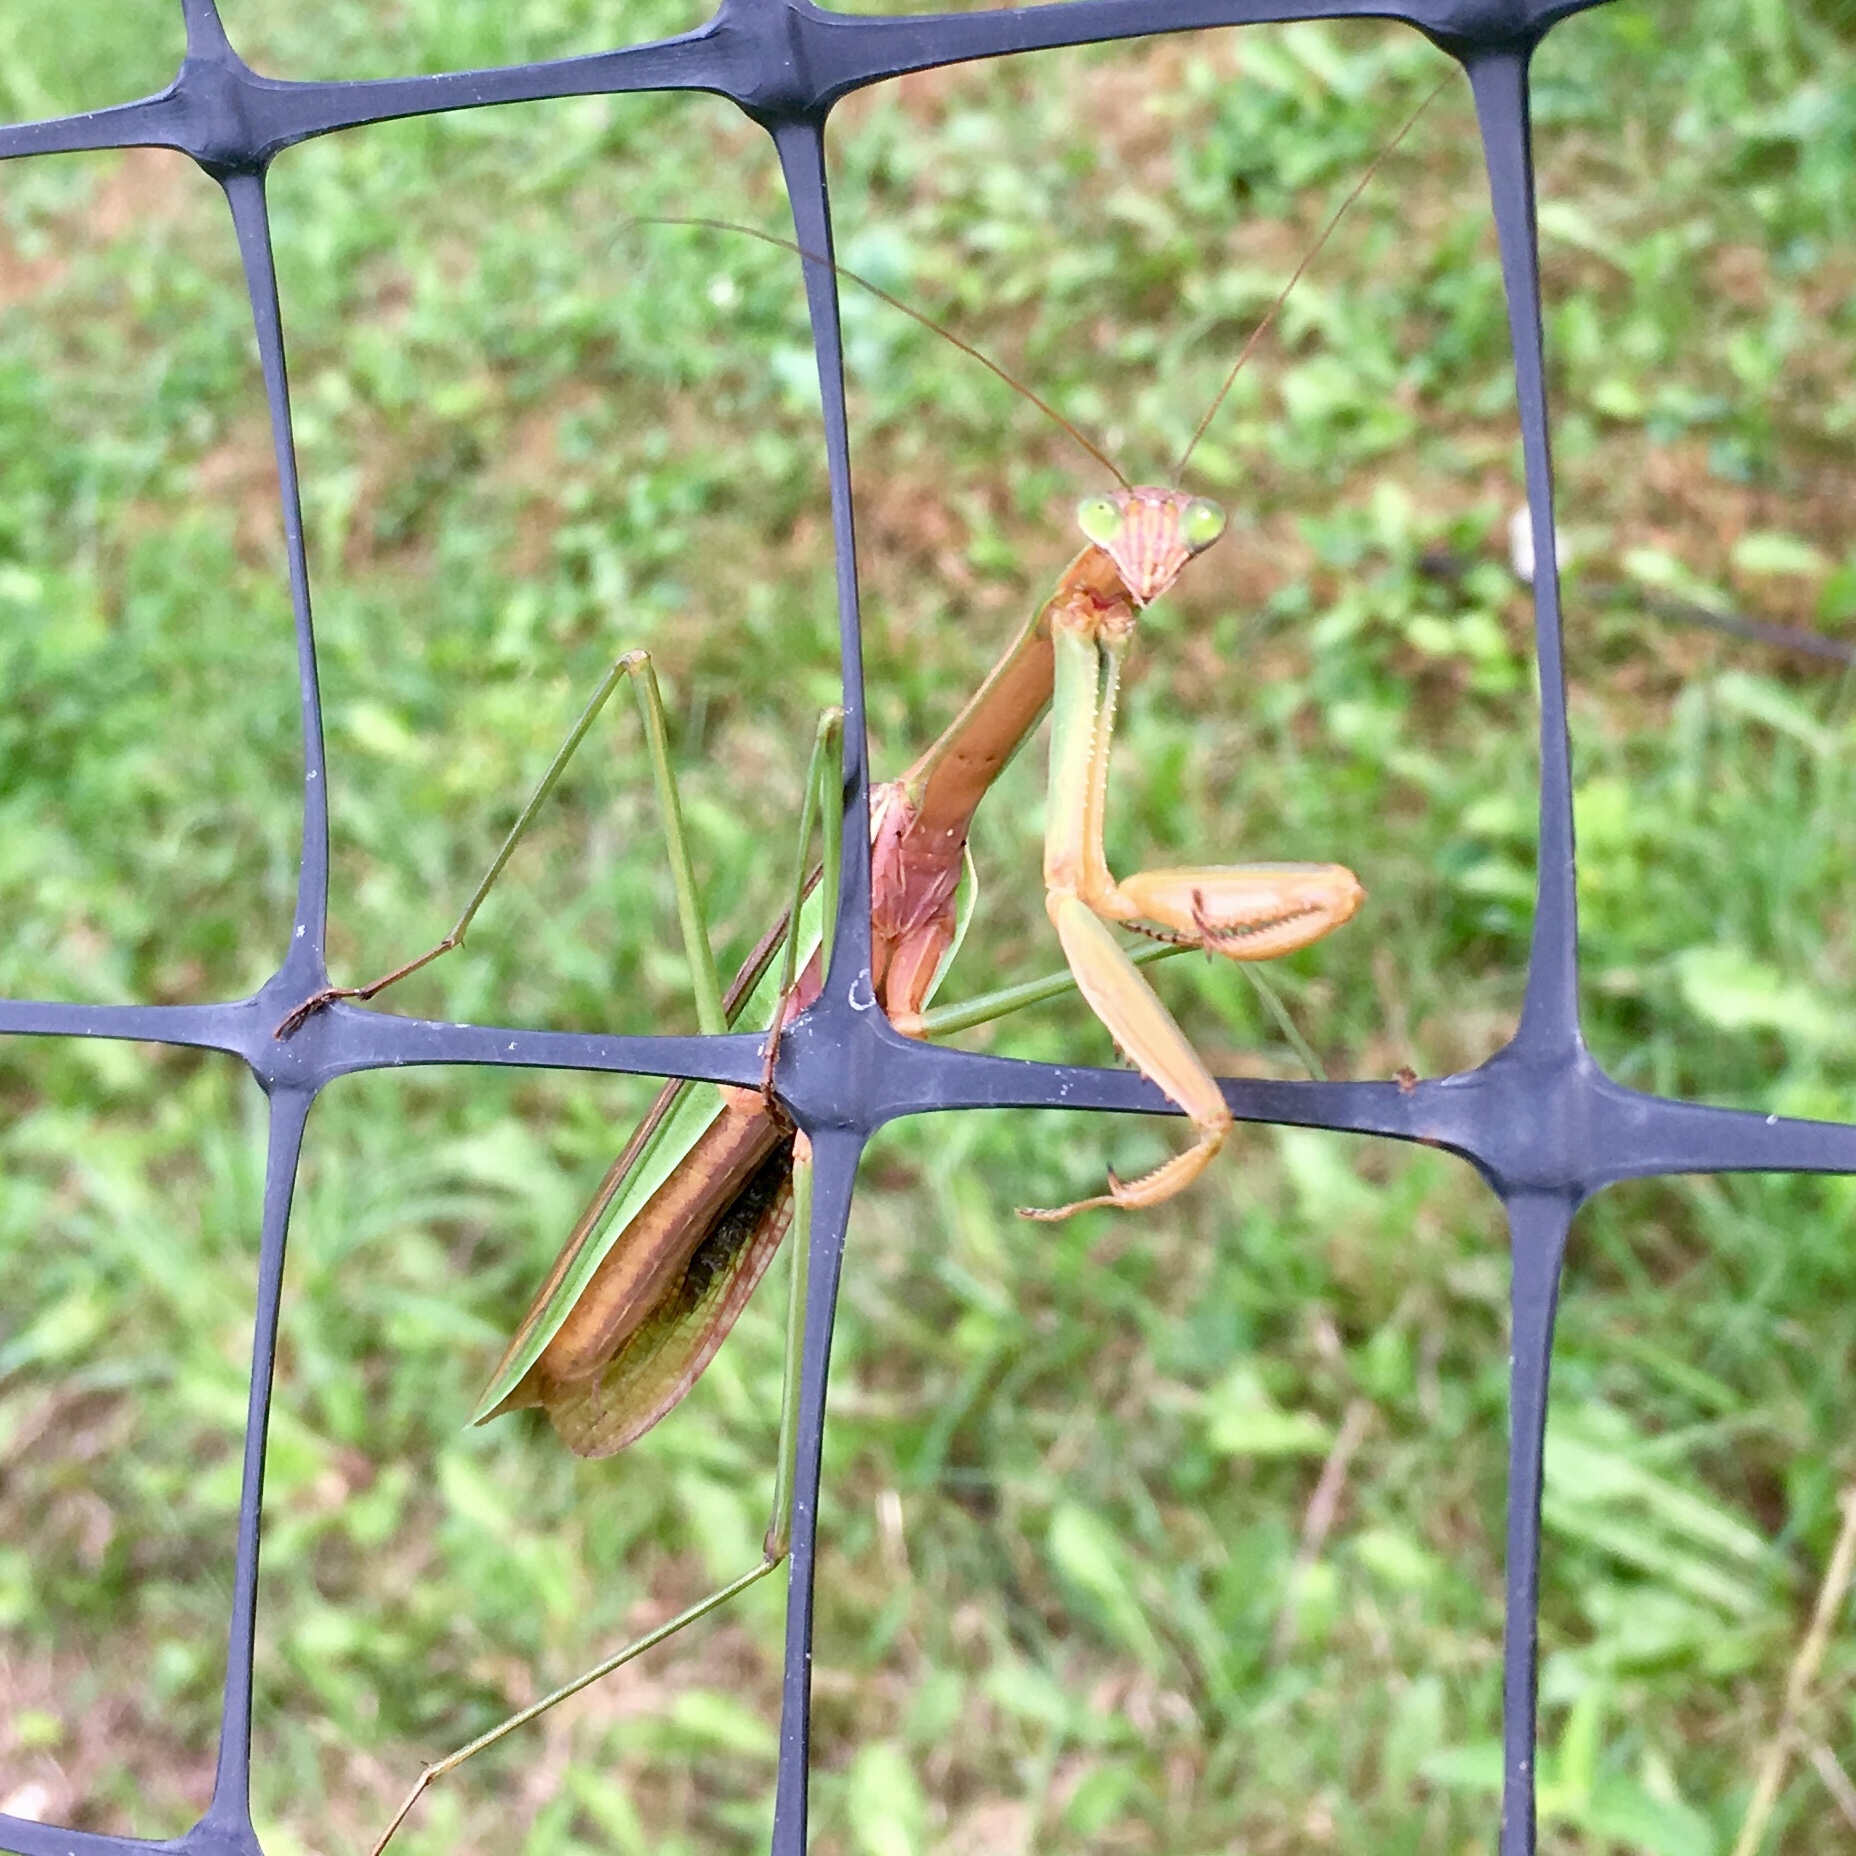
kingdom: Animalia
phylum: Arthropoda
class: Insecta
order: Mantodea
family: Mantidae
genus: Tenodera
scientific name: Tenodera sinensis
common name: Chinese mantis
